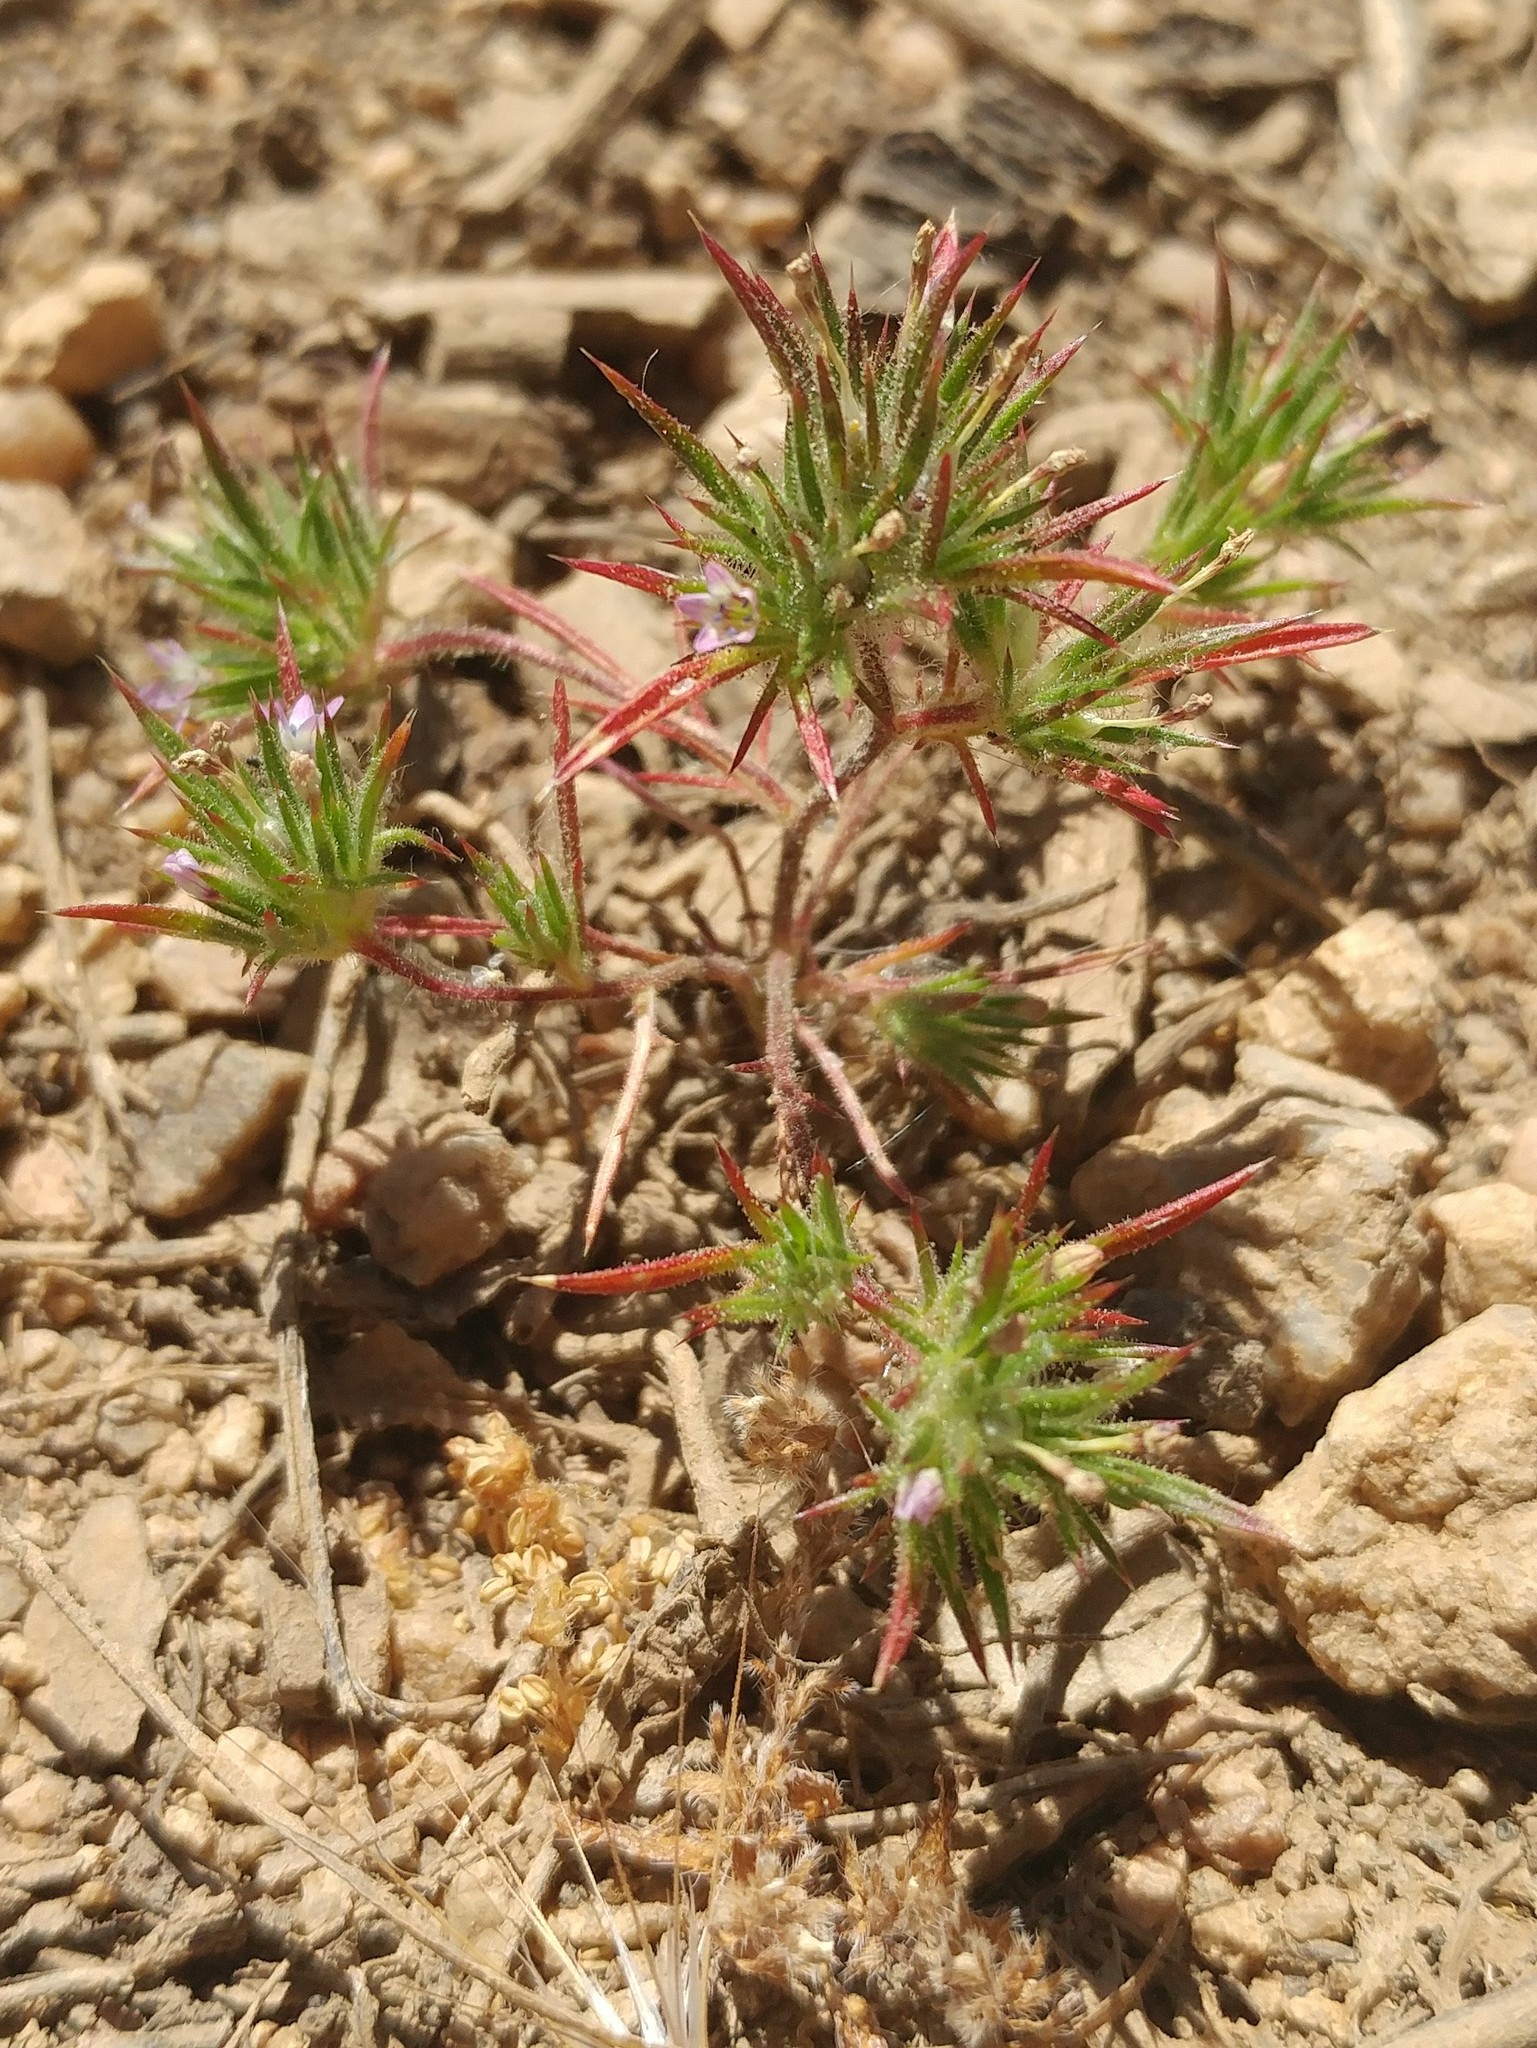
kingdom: Plantae
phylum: Tracheophyta
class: Magnoliopsida
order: Ericales
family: Polemoniaceae
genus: Navarretia
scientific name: Navarretia peninsularis
